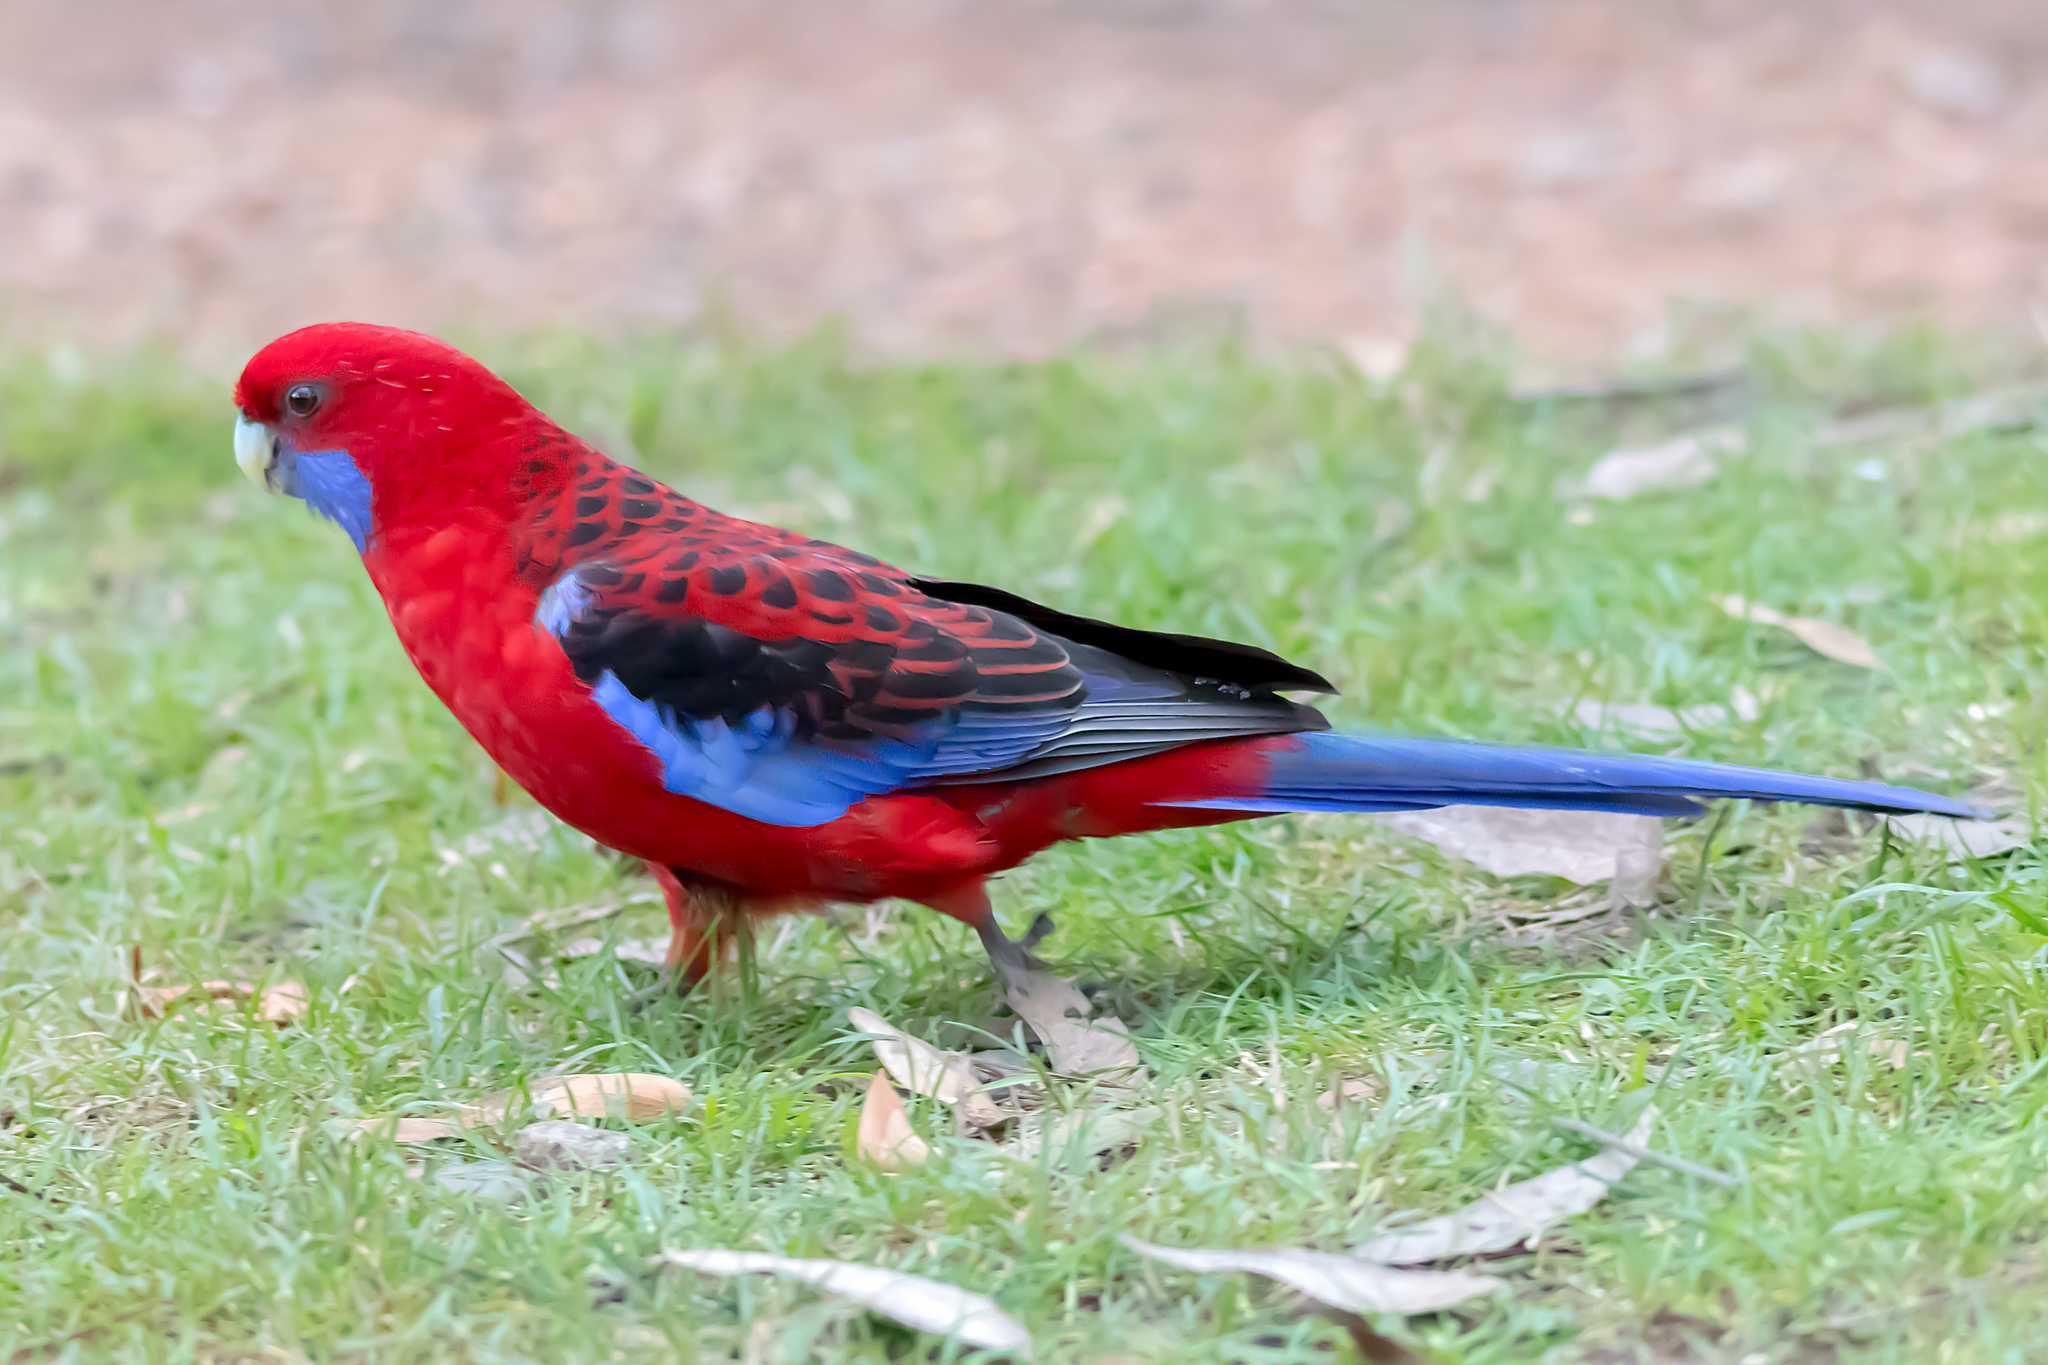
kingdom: Animalia
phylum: Chordata
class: Aves
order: Psittaciformes
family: Psittacidae
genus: Platycercus
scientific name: Platycercus elegans
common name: Crimson rosella
